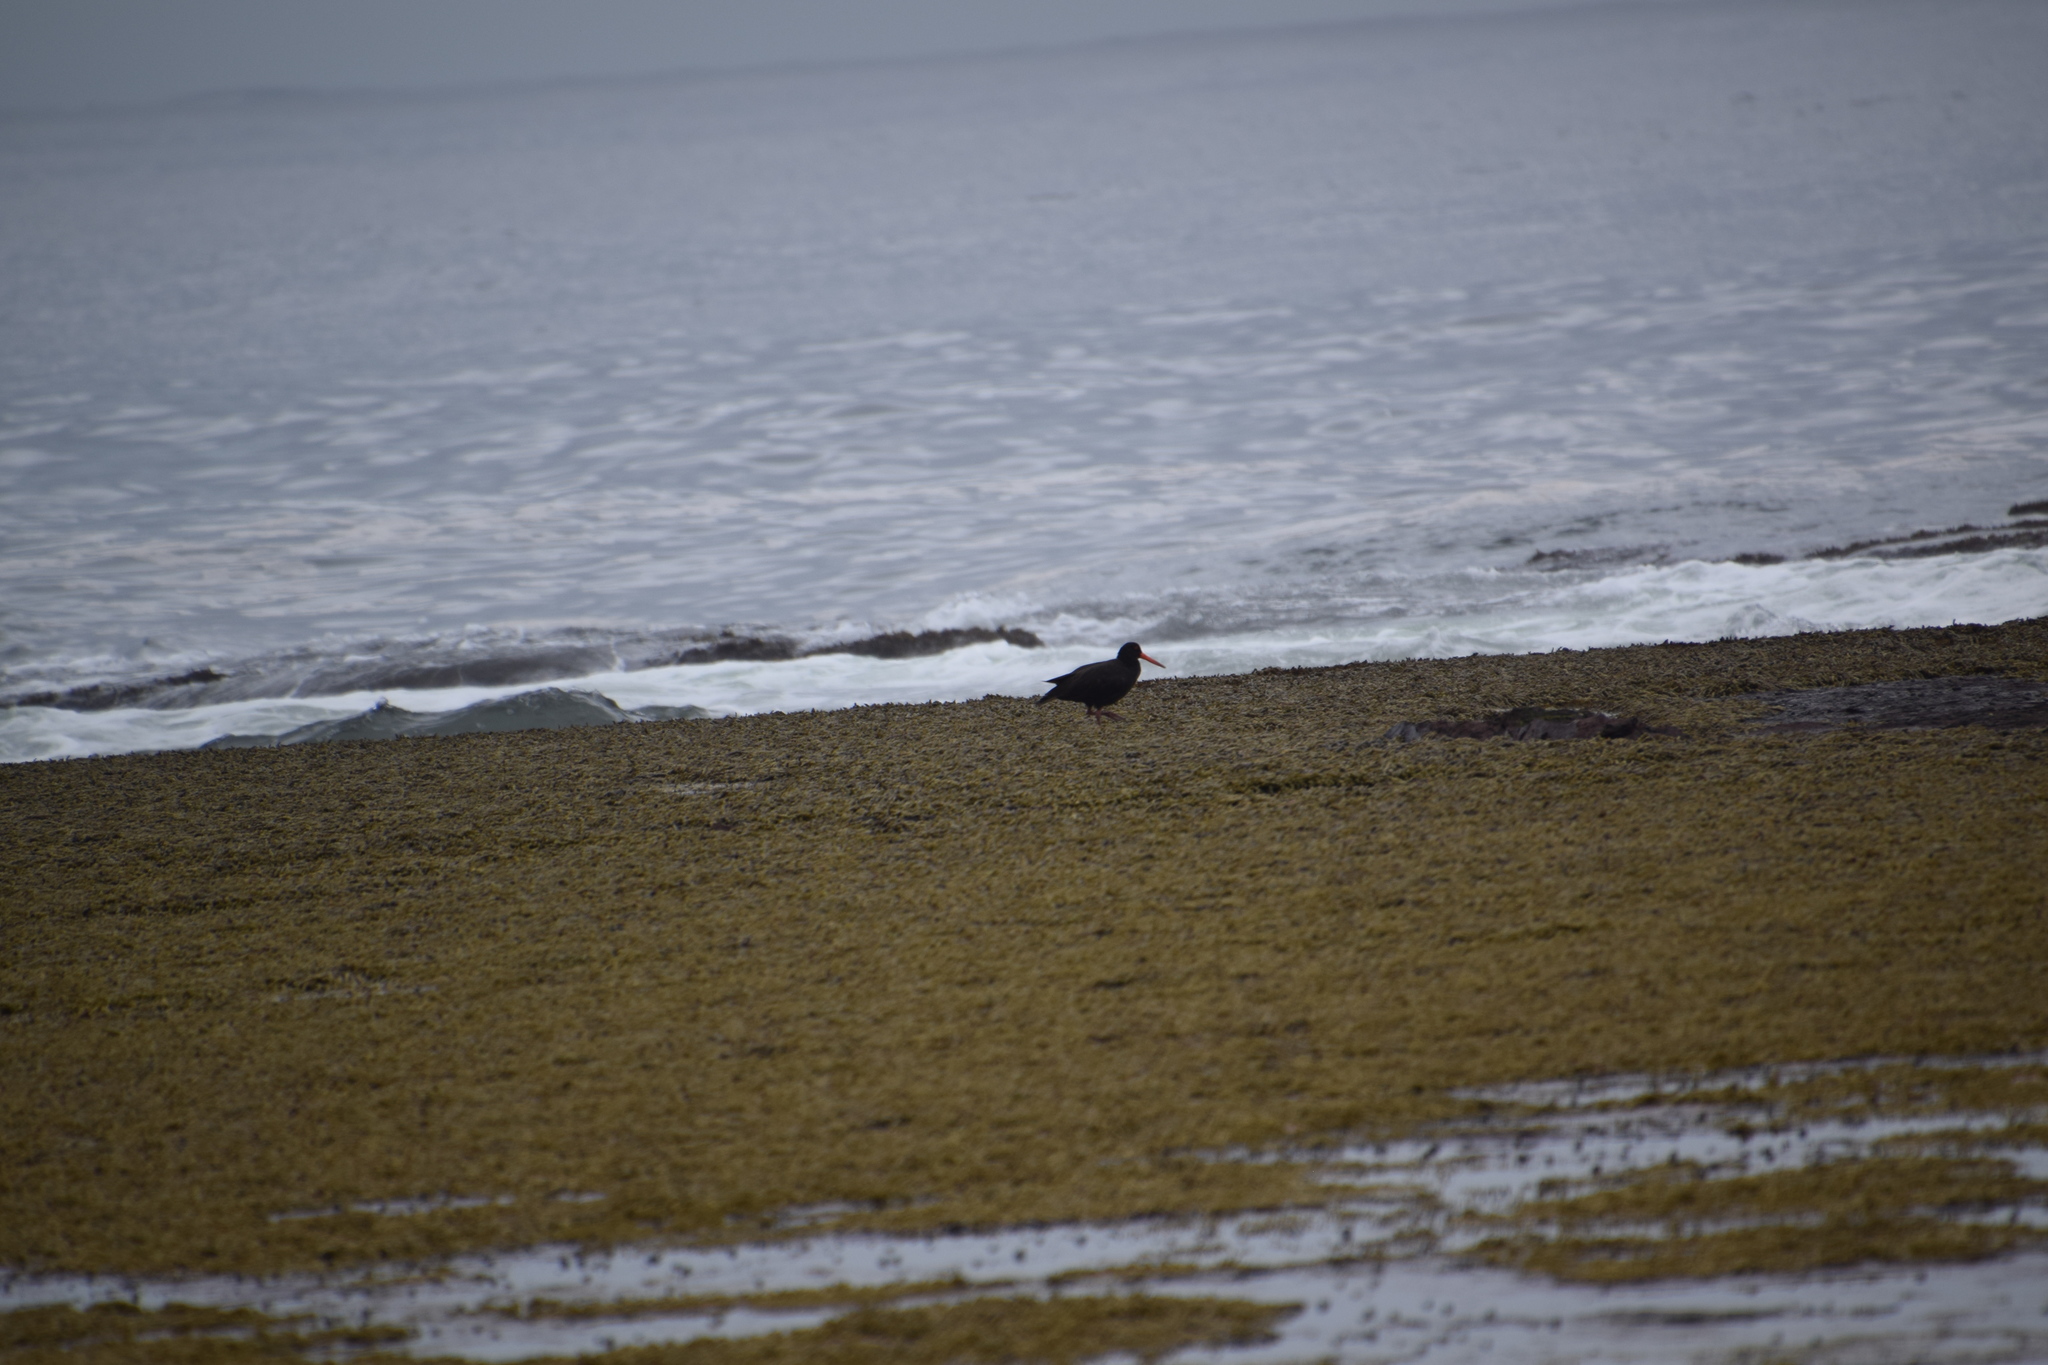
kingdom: Animalia
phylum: Chordata
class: Aves
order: Charadriiformes
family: Haematopodidae
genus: Haematopus
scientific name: Haematopus fuliginosus
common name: Sooty oystercatcher
